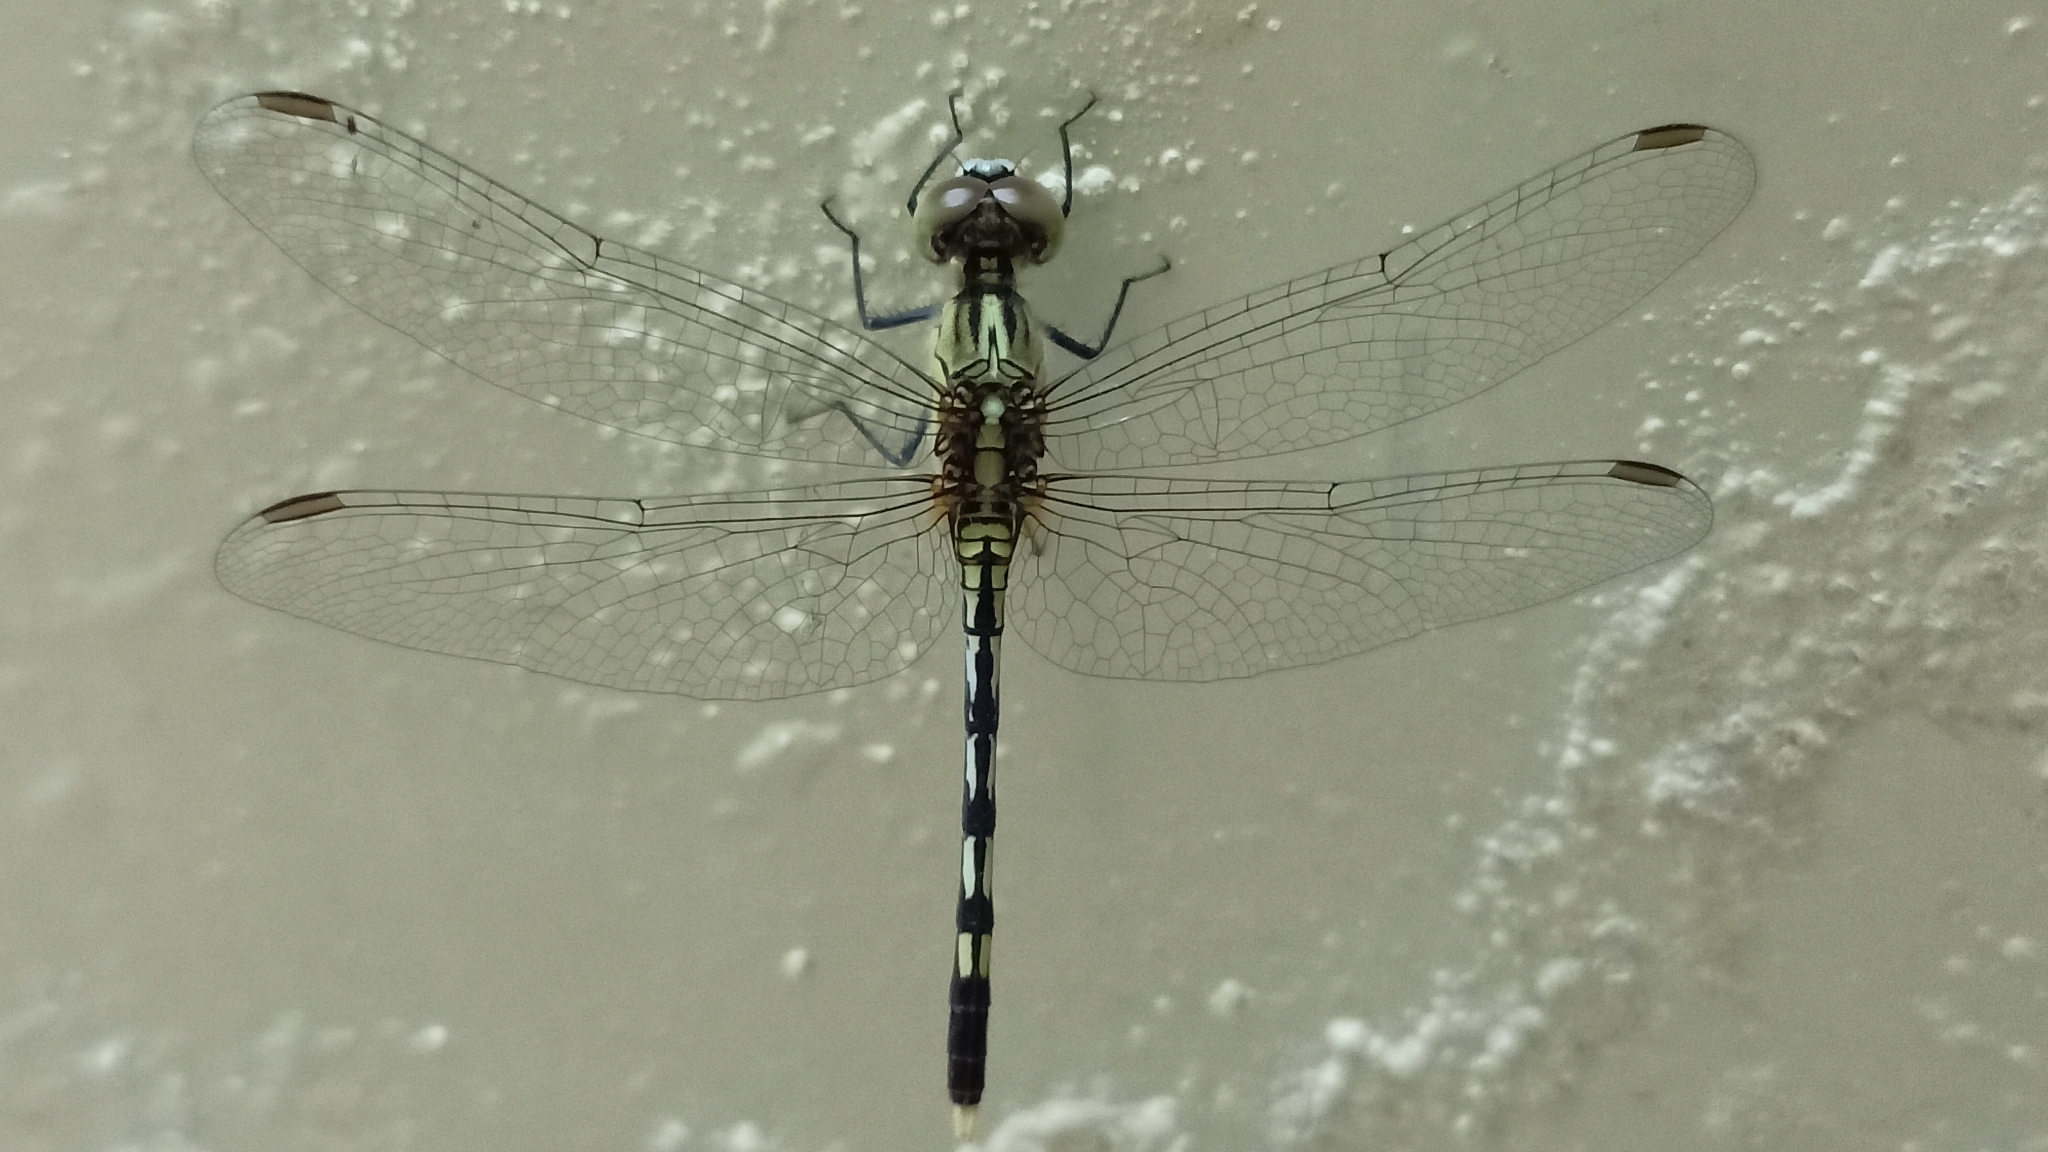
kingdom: Animalia
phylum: Arthropoda
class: Insecta
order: Odonata
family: Libellulidae
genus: Orthetrum
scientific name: Orthetrum sabina
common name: Slender skimmer
